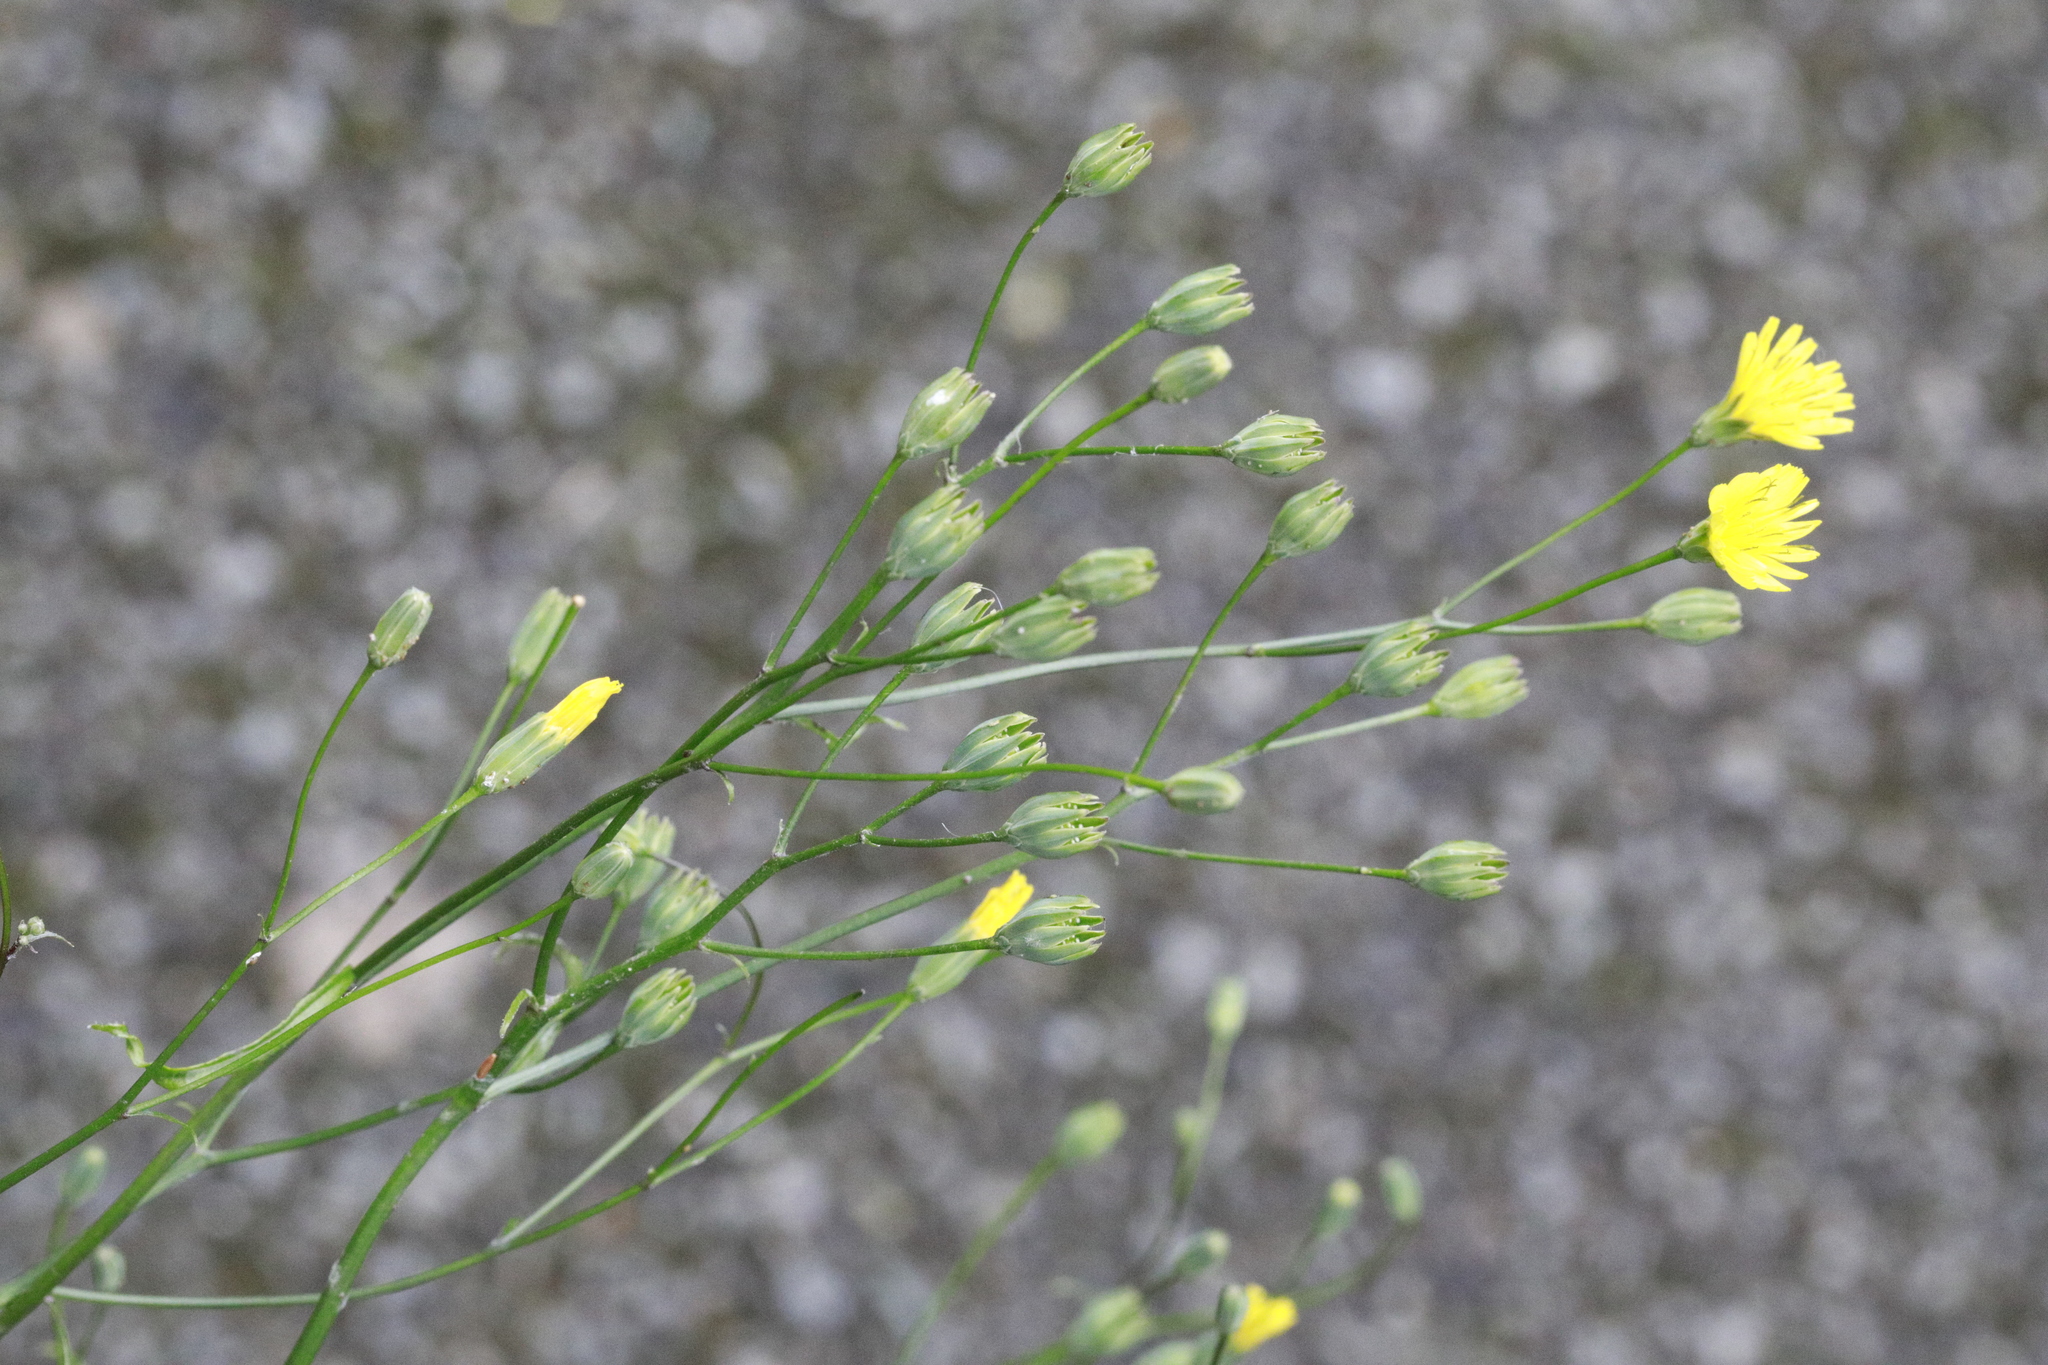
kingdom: Plantae
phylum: Tracheophyta
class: Magnoliopsida
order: Asterales
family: Asteraceae
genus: Lapsana
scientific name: Lapsana communis
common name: Nipplewort
